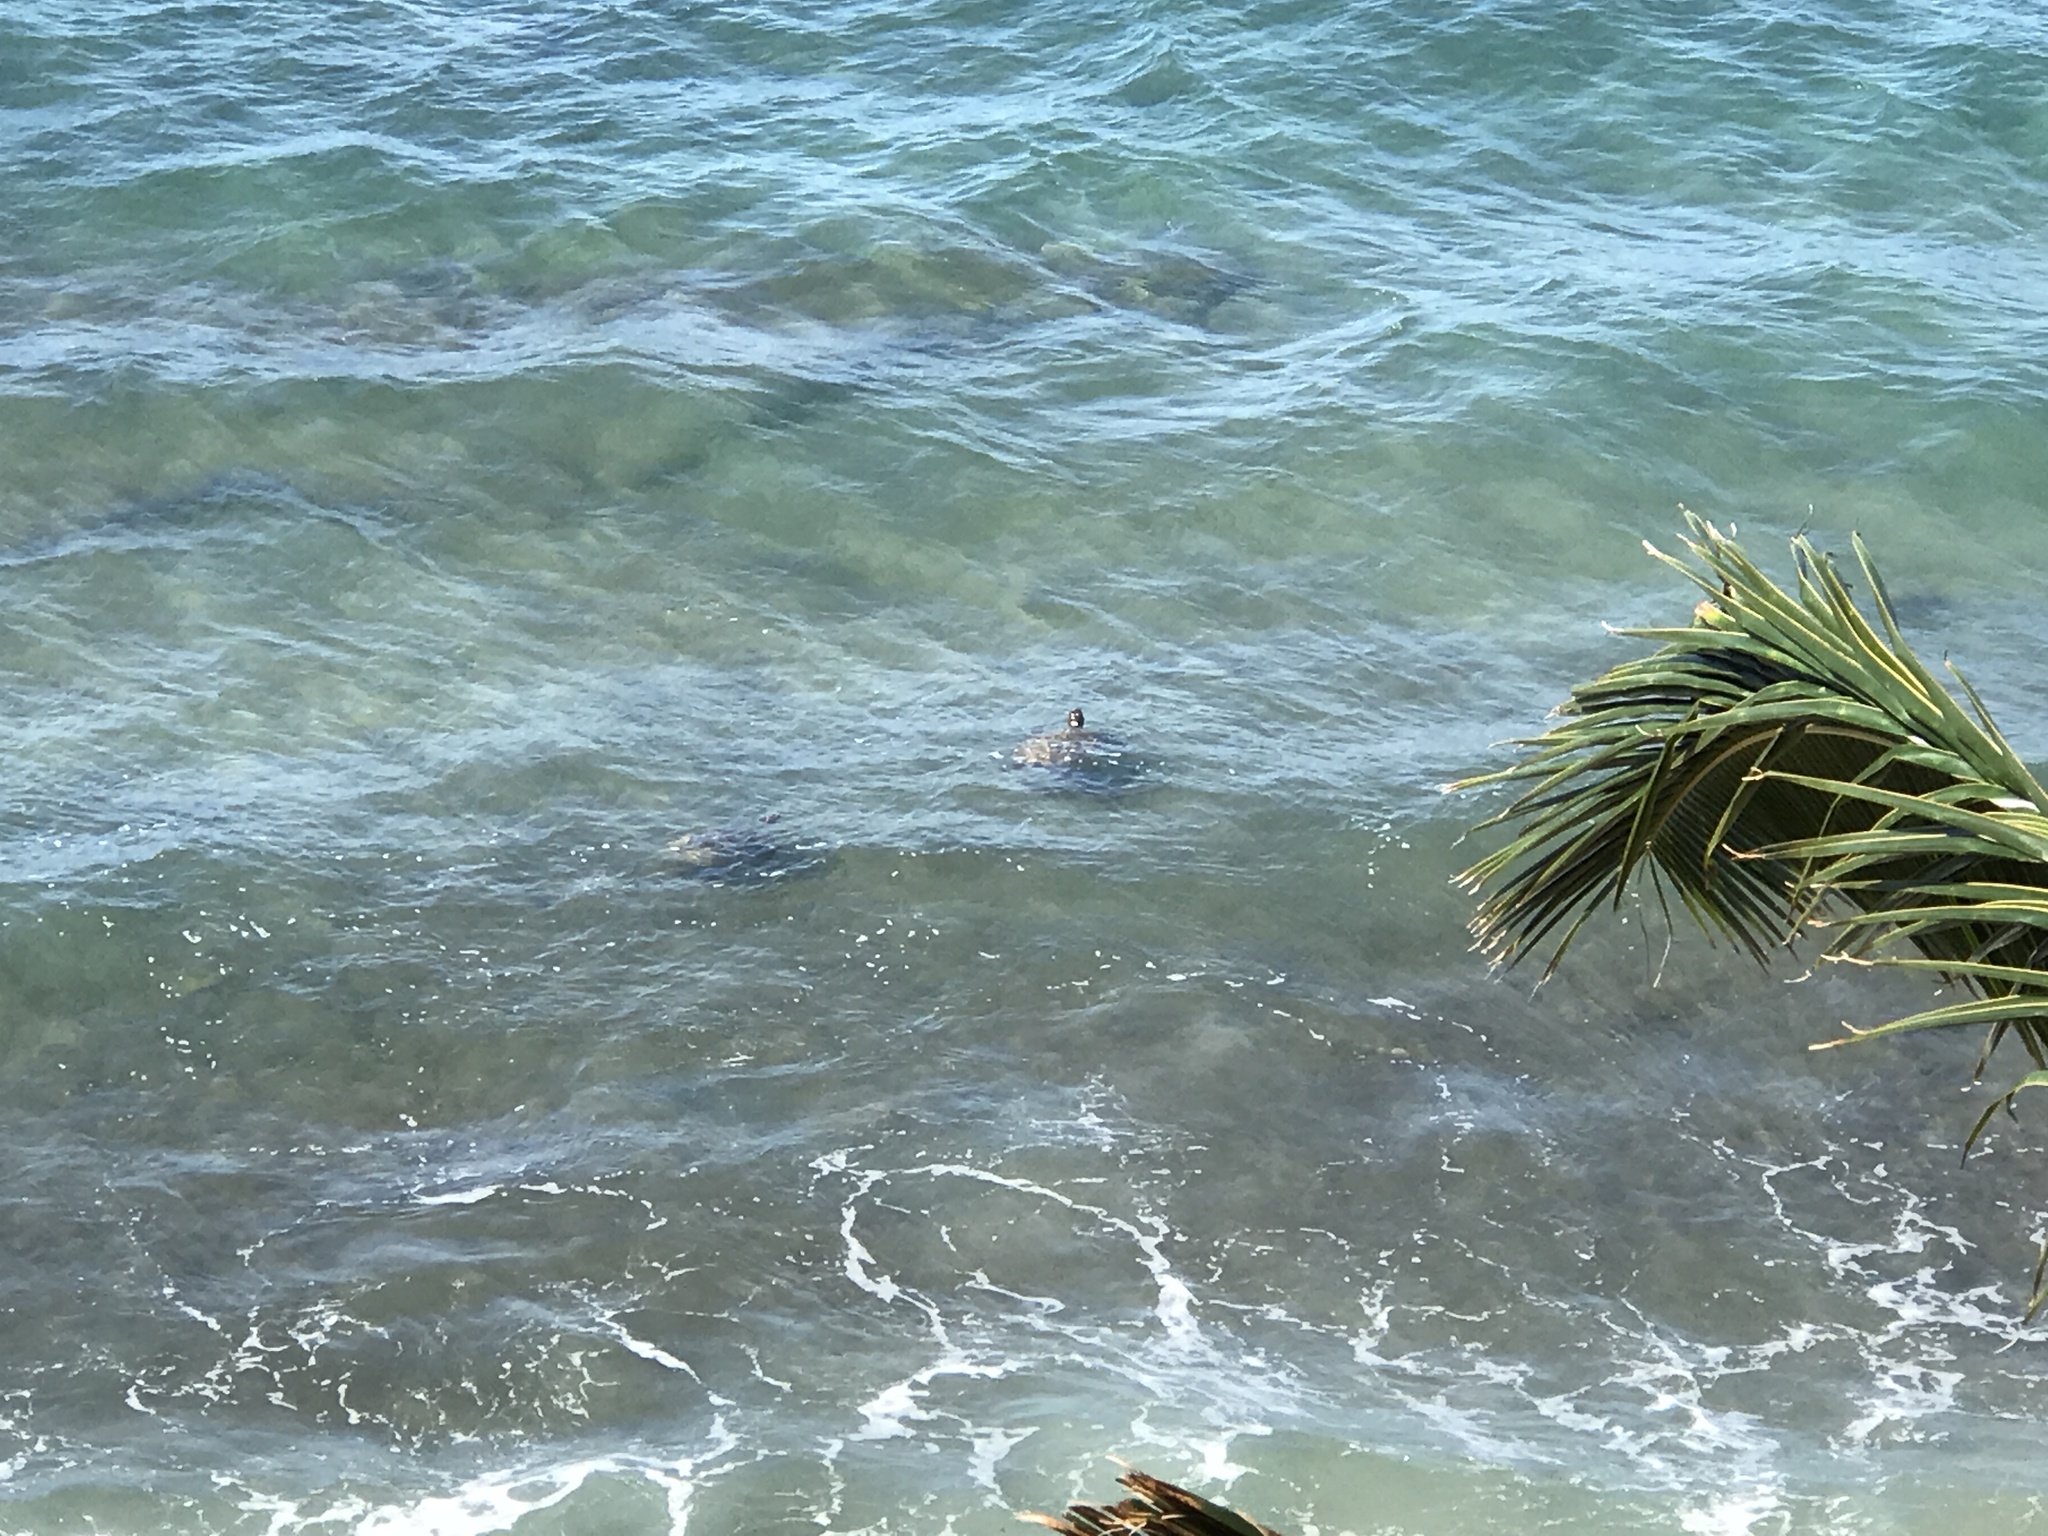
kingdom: Animalia
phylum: Chordata
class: Testudines
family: Cheloniidae
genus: Chelonia
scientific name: Chelonia mydas
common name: Green turtle
